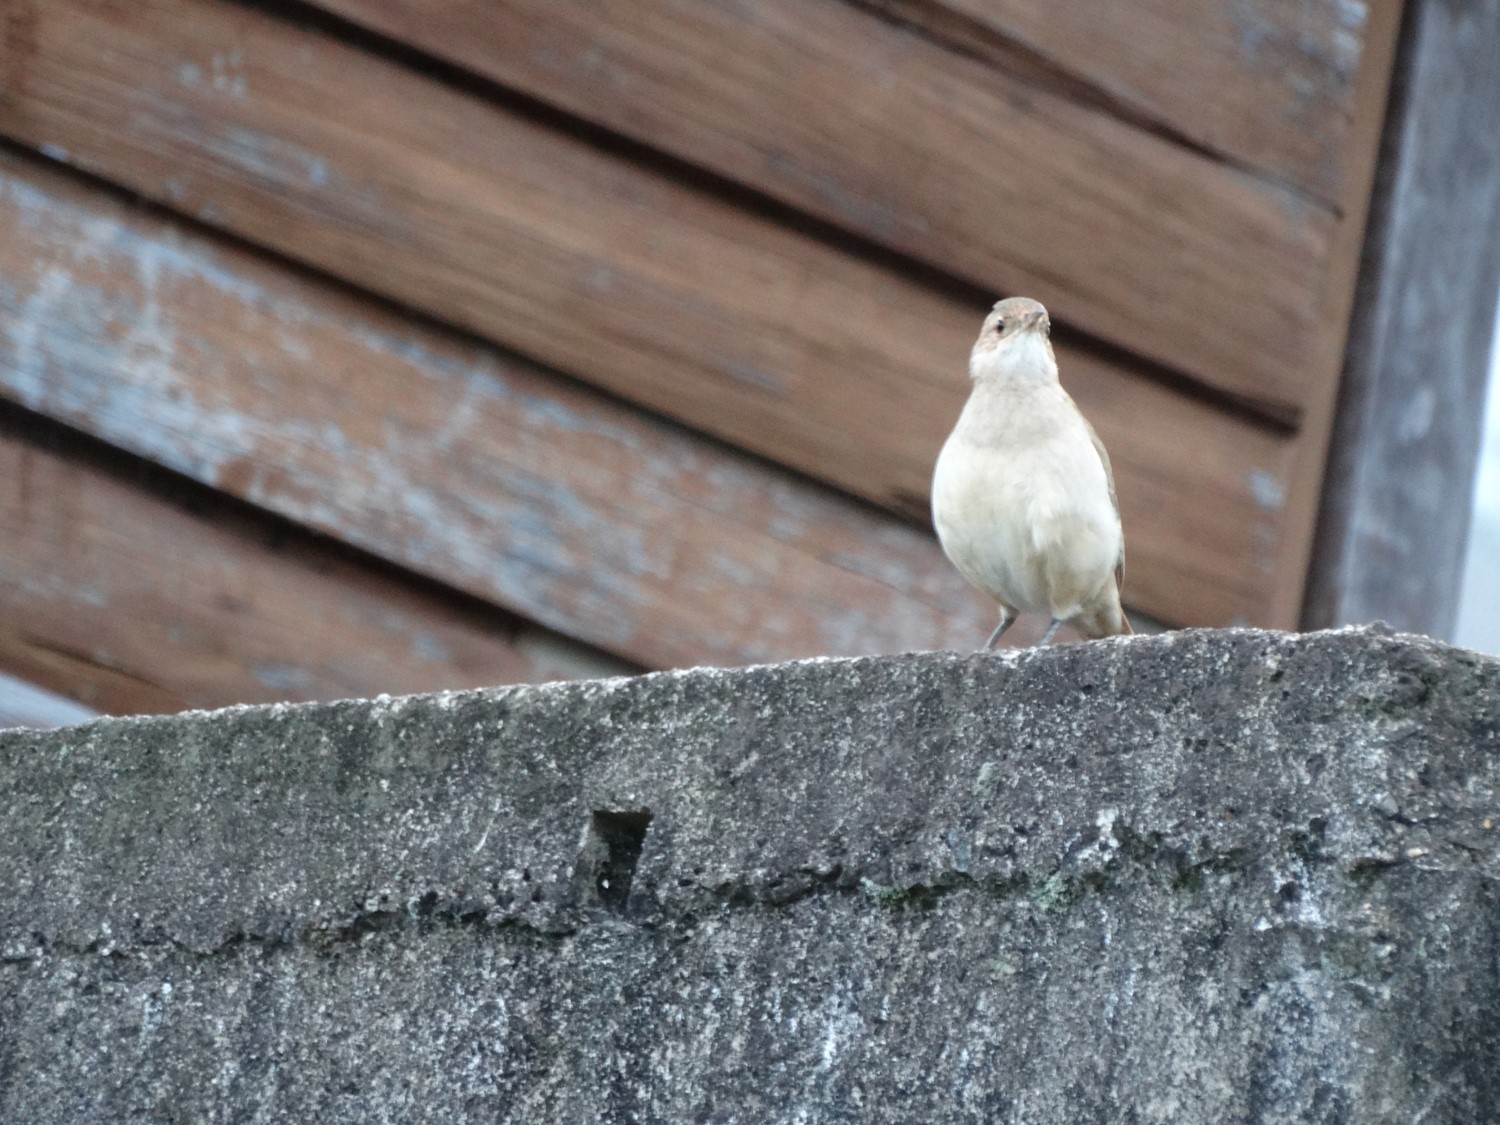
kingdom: Animalia
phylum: Chordata
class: Aves
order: Passeriformes
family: Furnariidae
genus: Furnarius
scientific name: Furnarius rufus
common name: Rufous hornero
